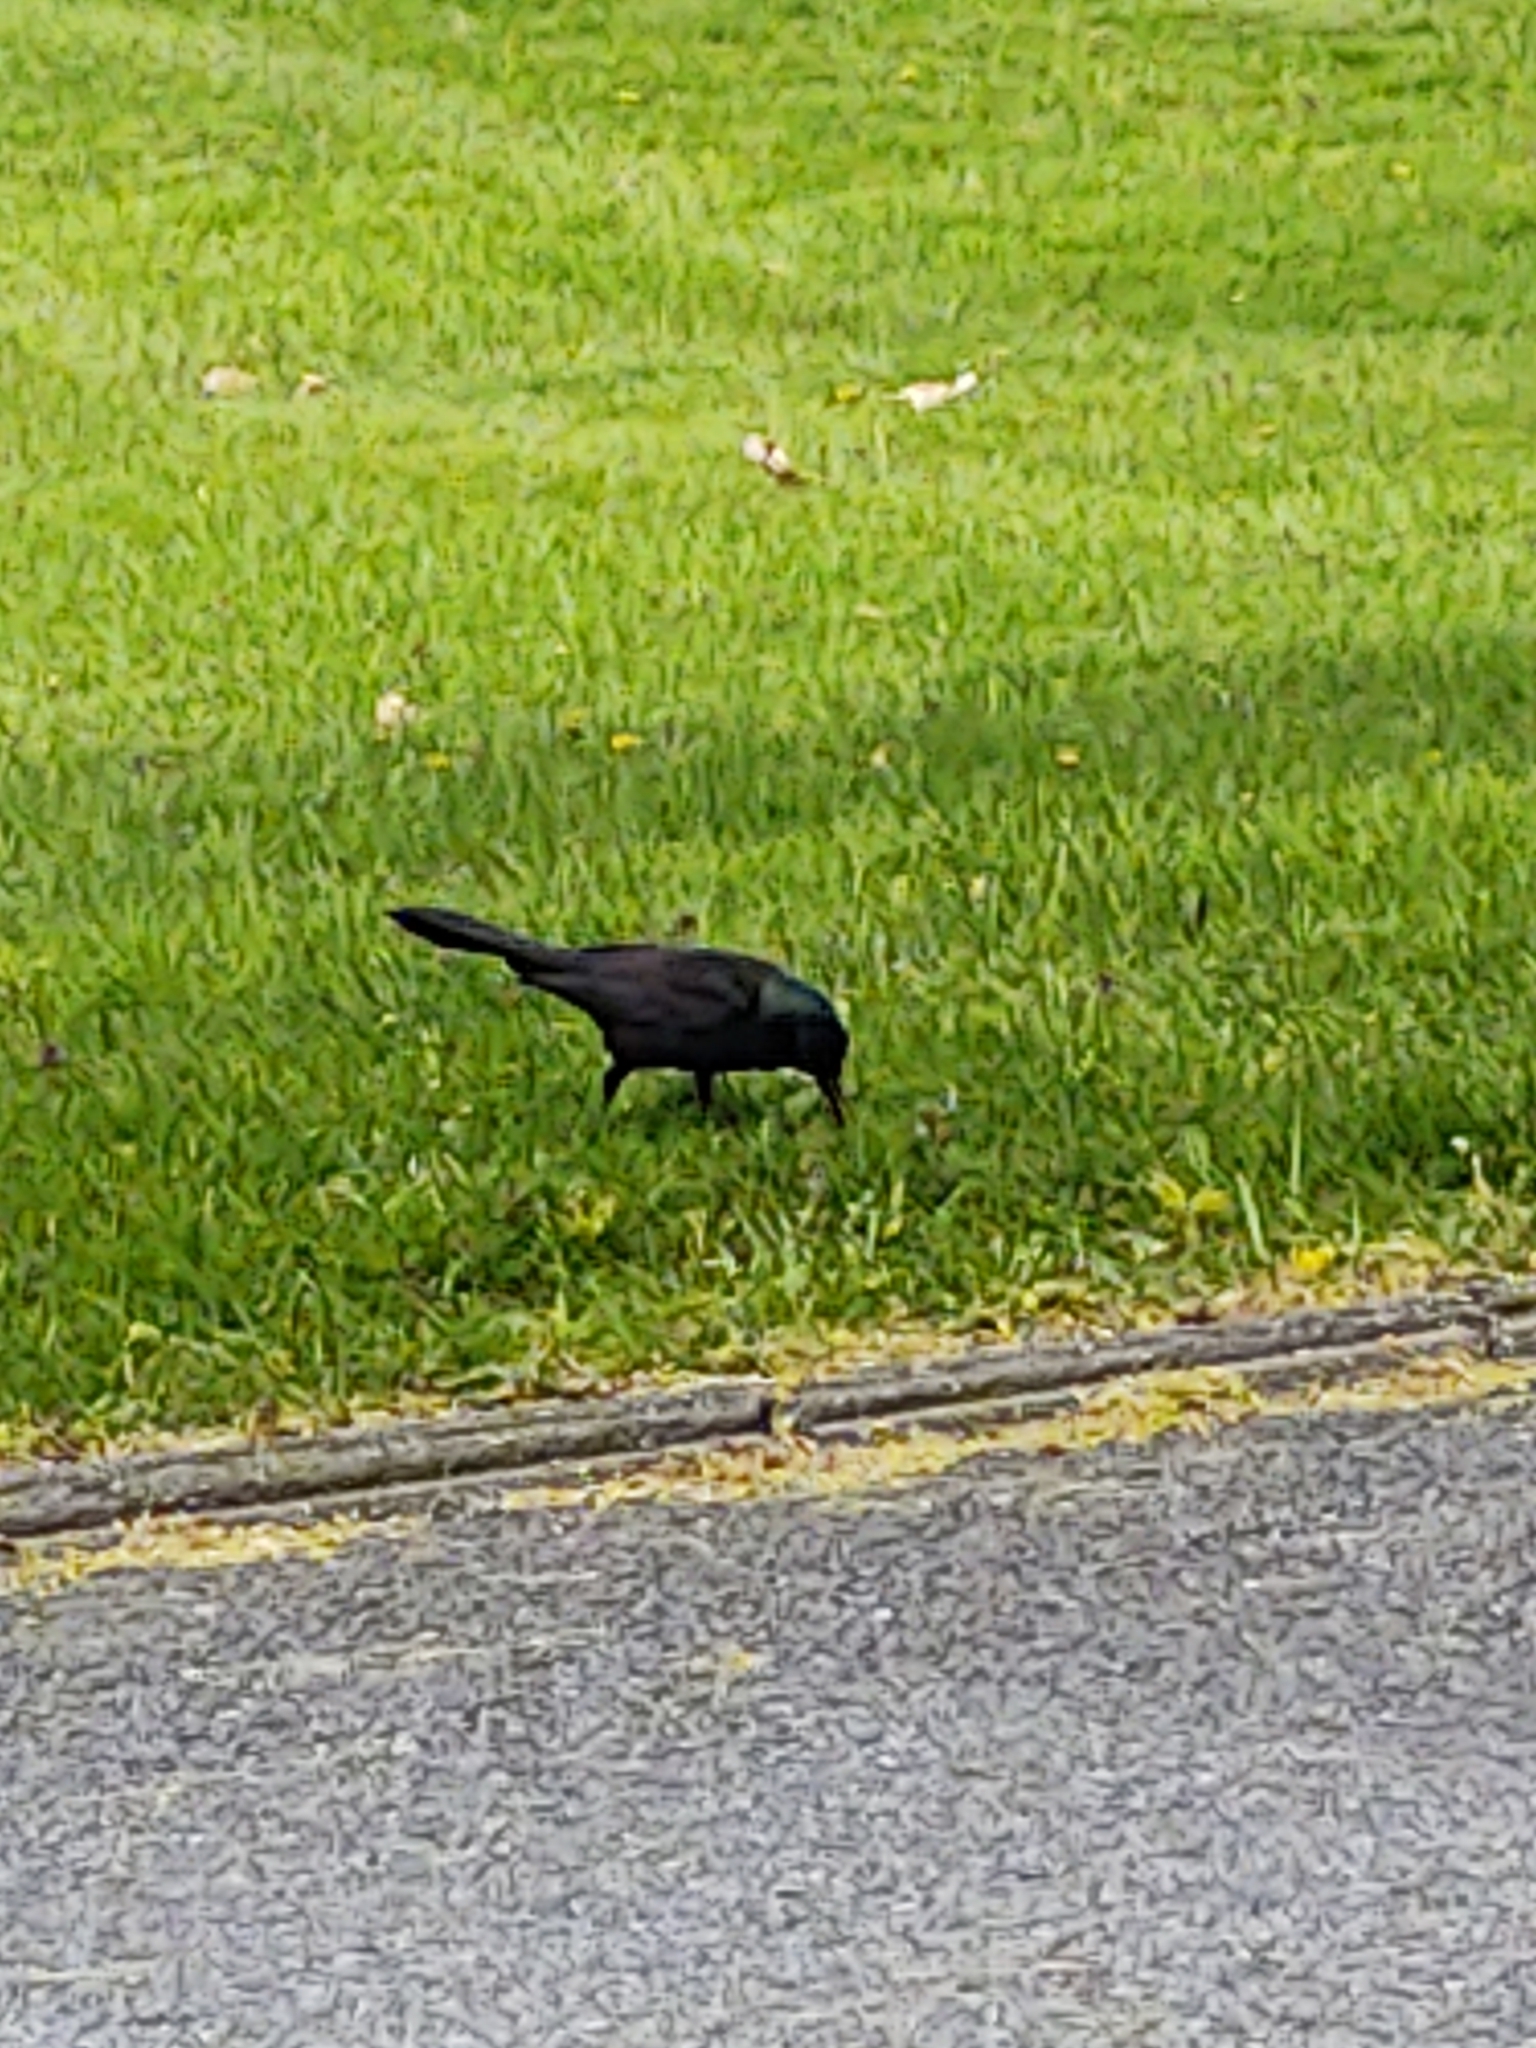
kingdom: Animalia
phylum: Chordata
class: Aves
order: Passeriformes
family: Icteridae
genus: Quiscalus
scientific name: Quiscalus quiscula
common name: Common grackle
